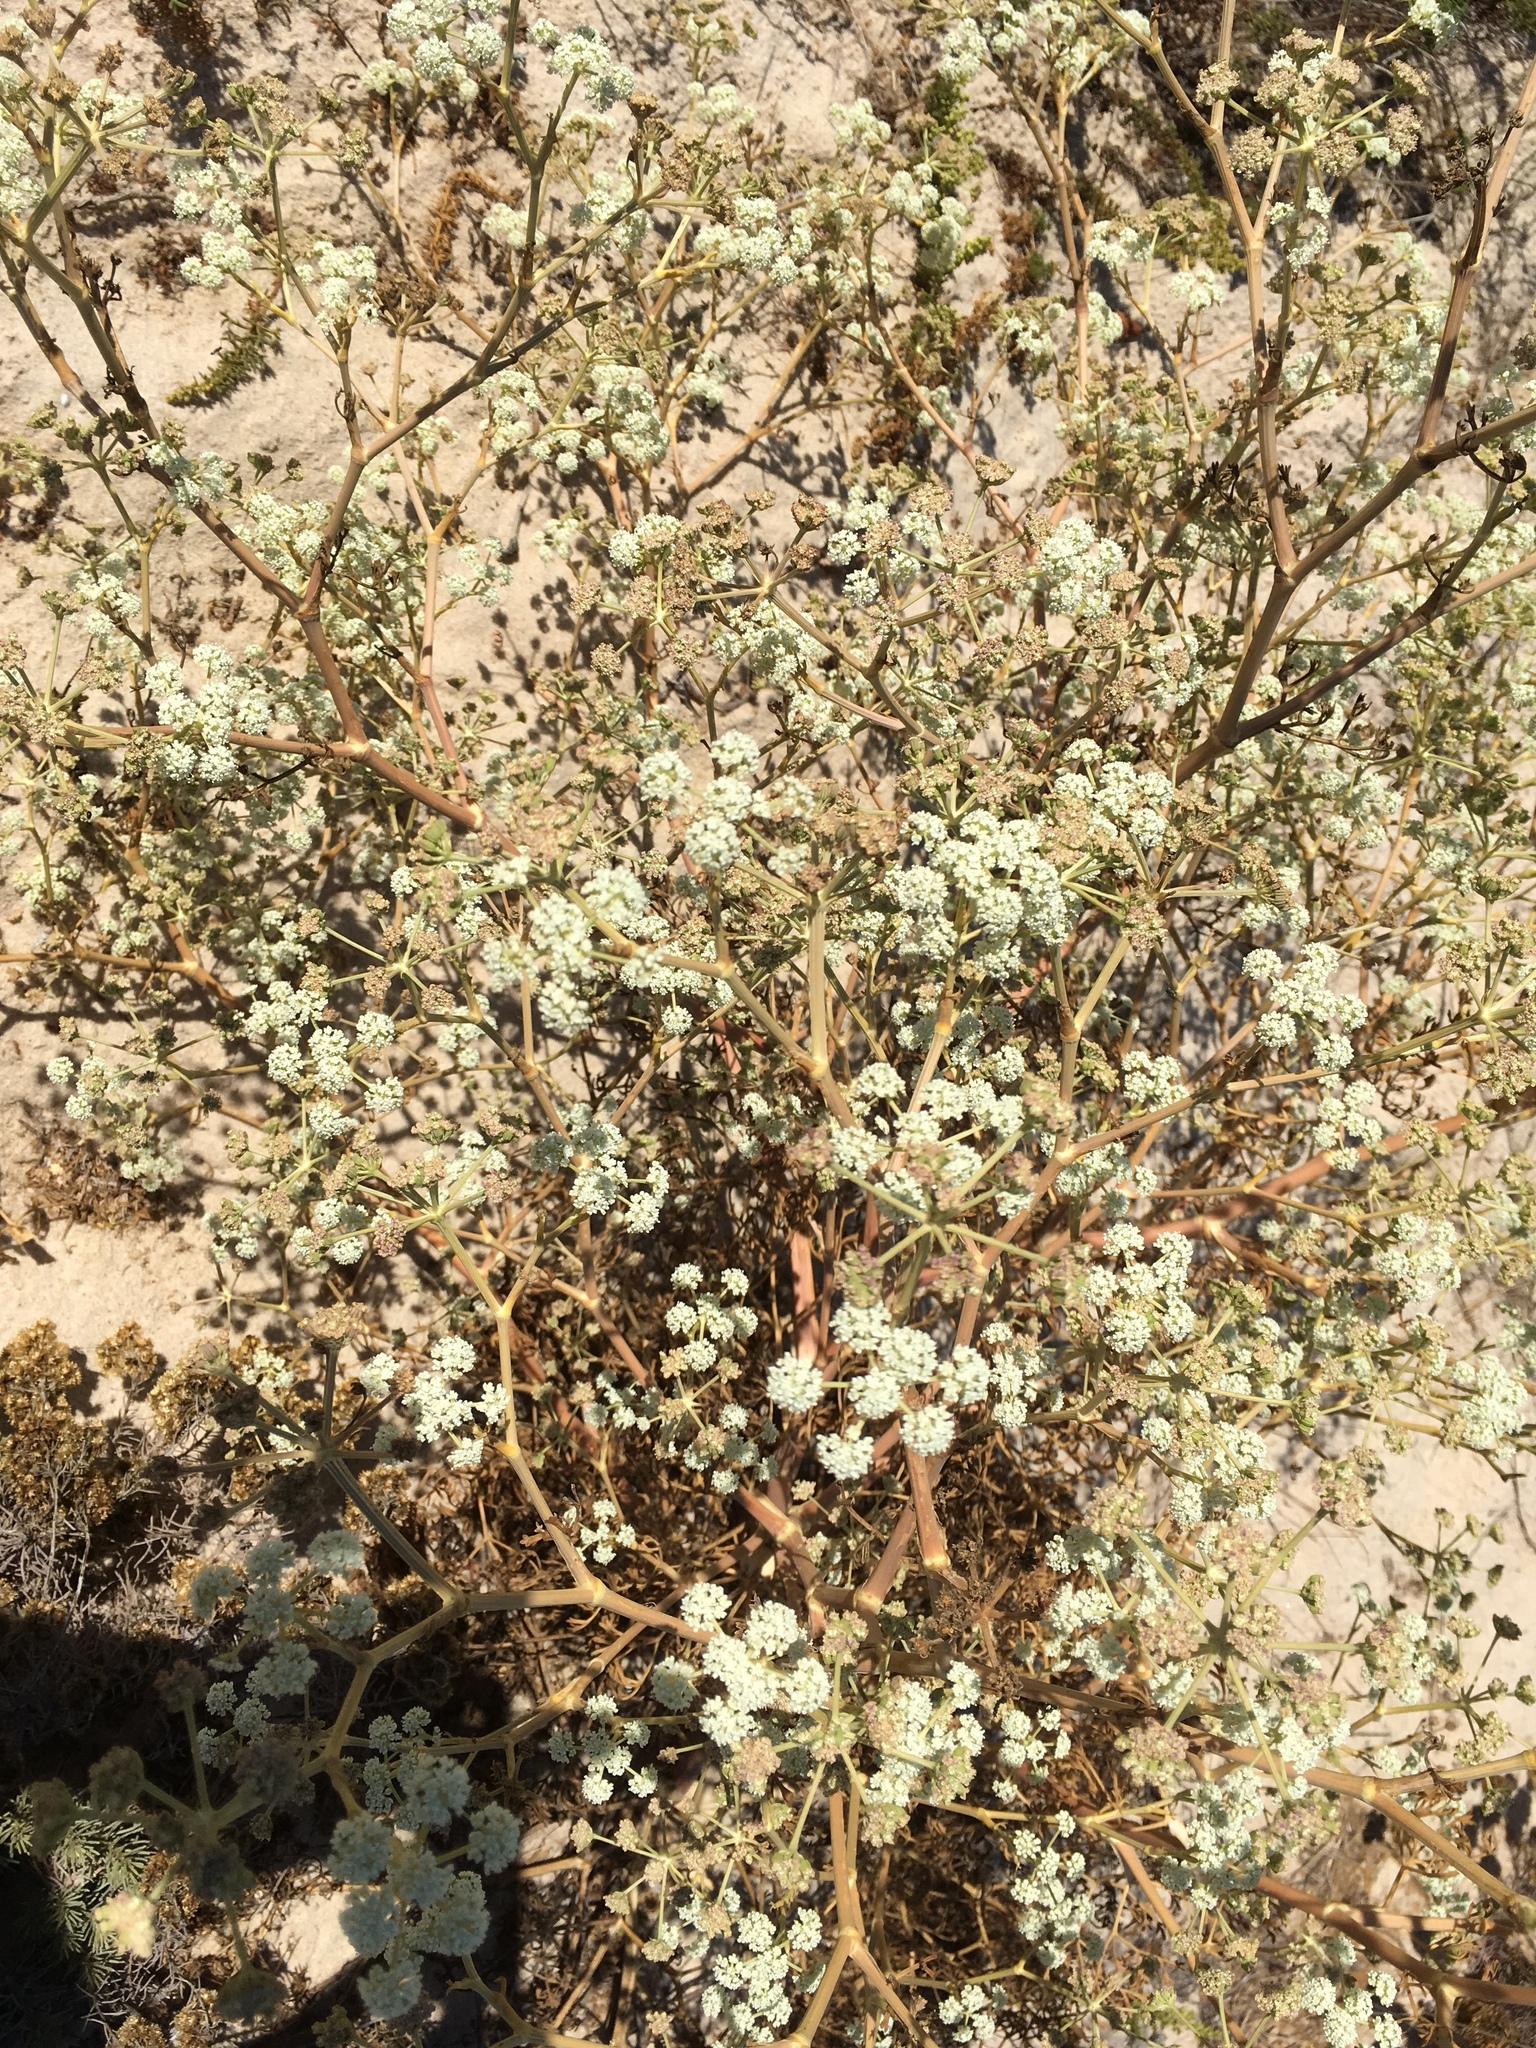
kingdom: Plantae
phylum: Tracheophyta
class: Magnoliopsida
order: Apiales
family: Apiaceae
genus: Seseli
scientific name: Seseli tortuosum
